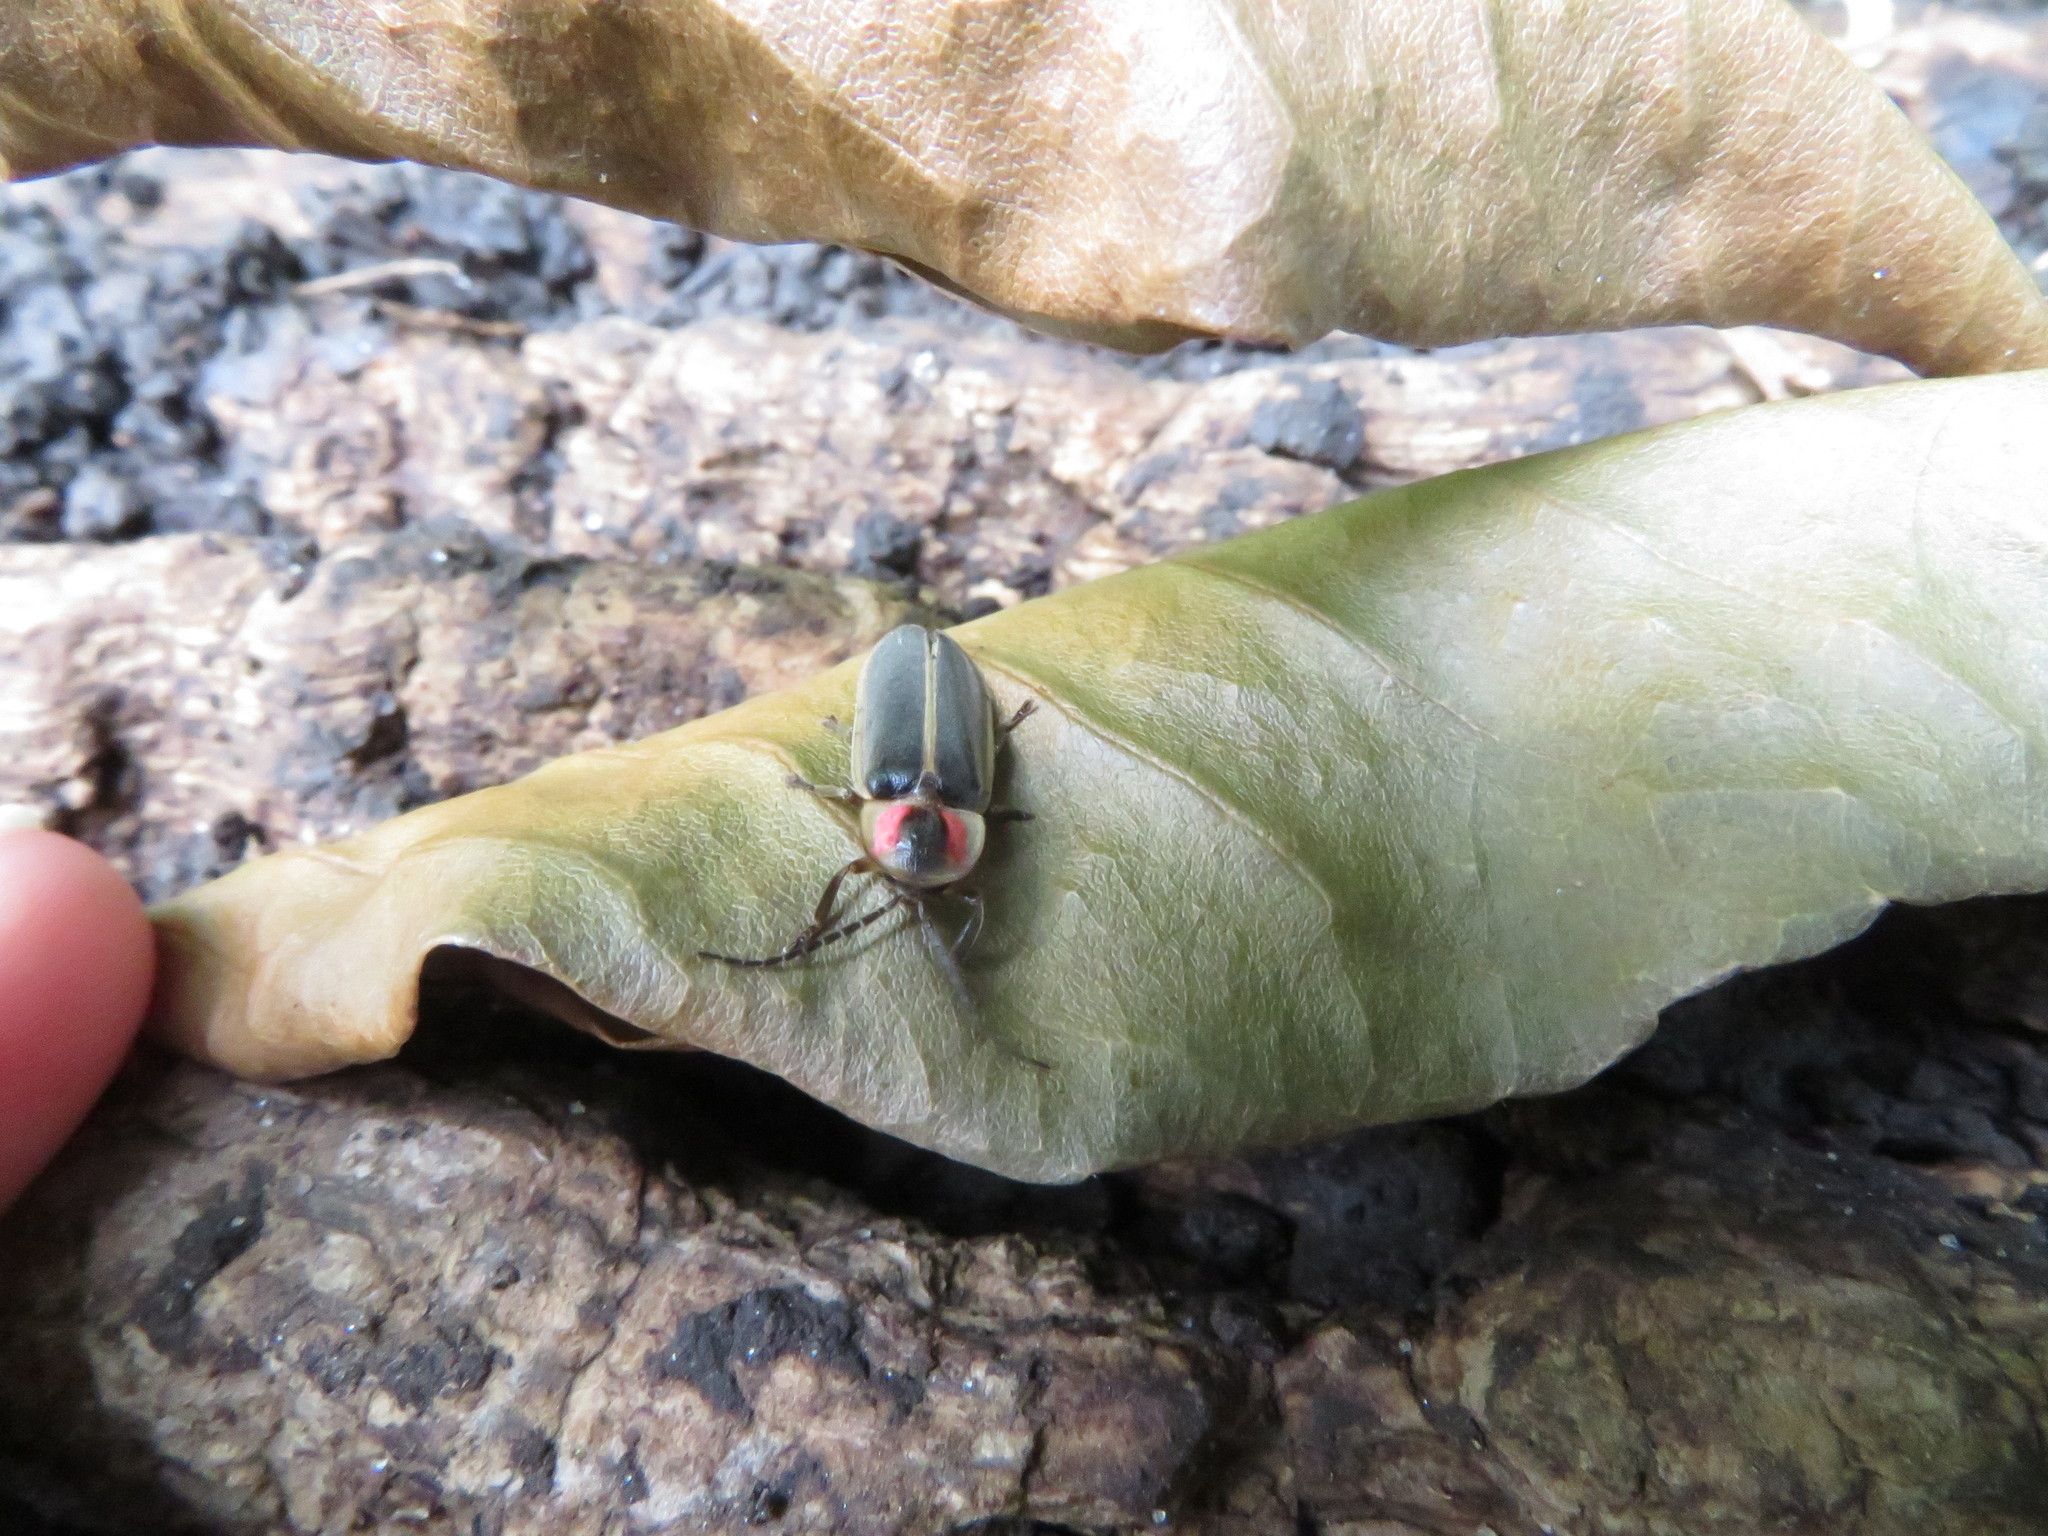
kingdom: Animalia
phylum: Arthropoda
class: Insecta
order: Coleoptera
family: Lampyridae
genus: Photinus
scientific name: Photinus pyralis
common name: Big dipper firefly
